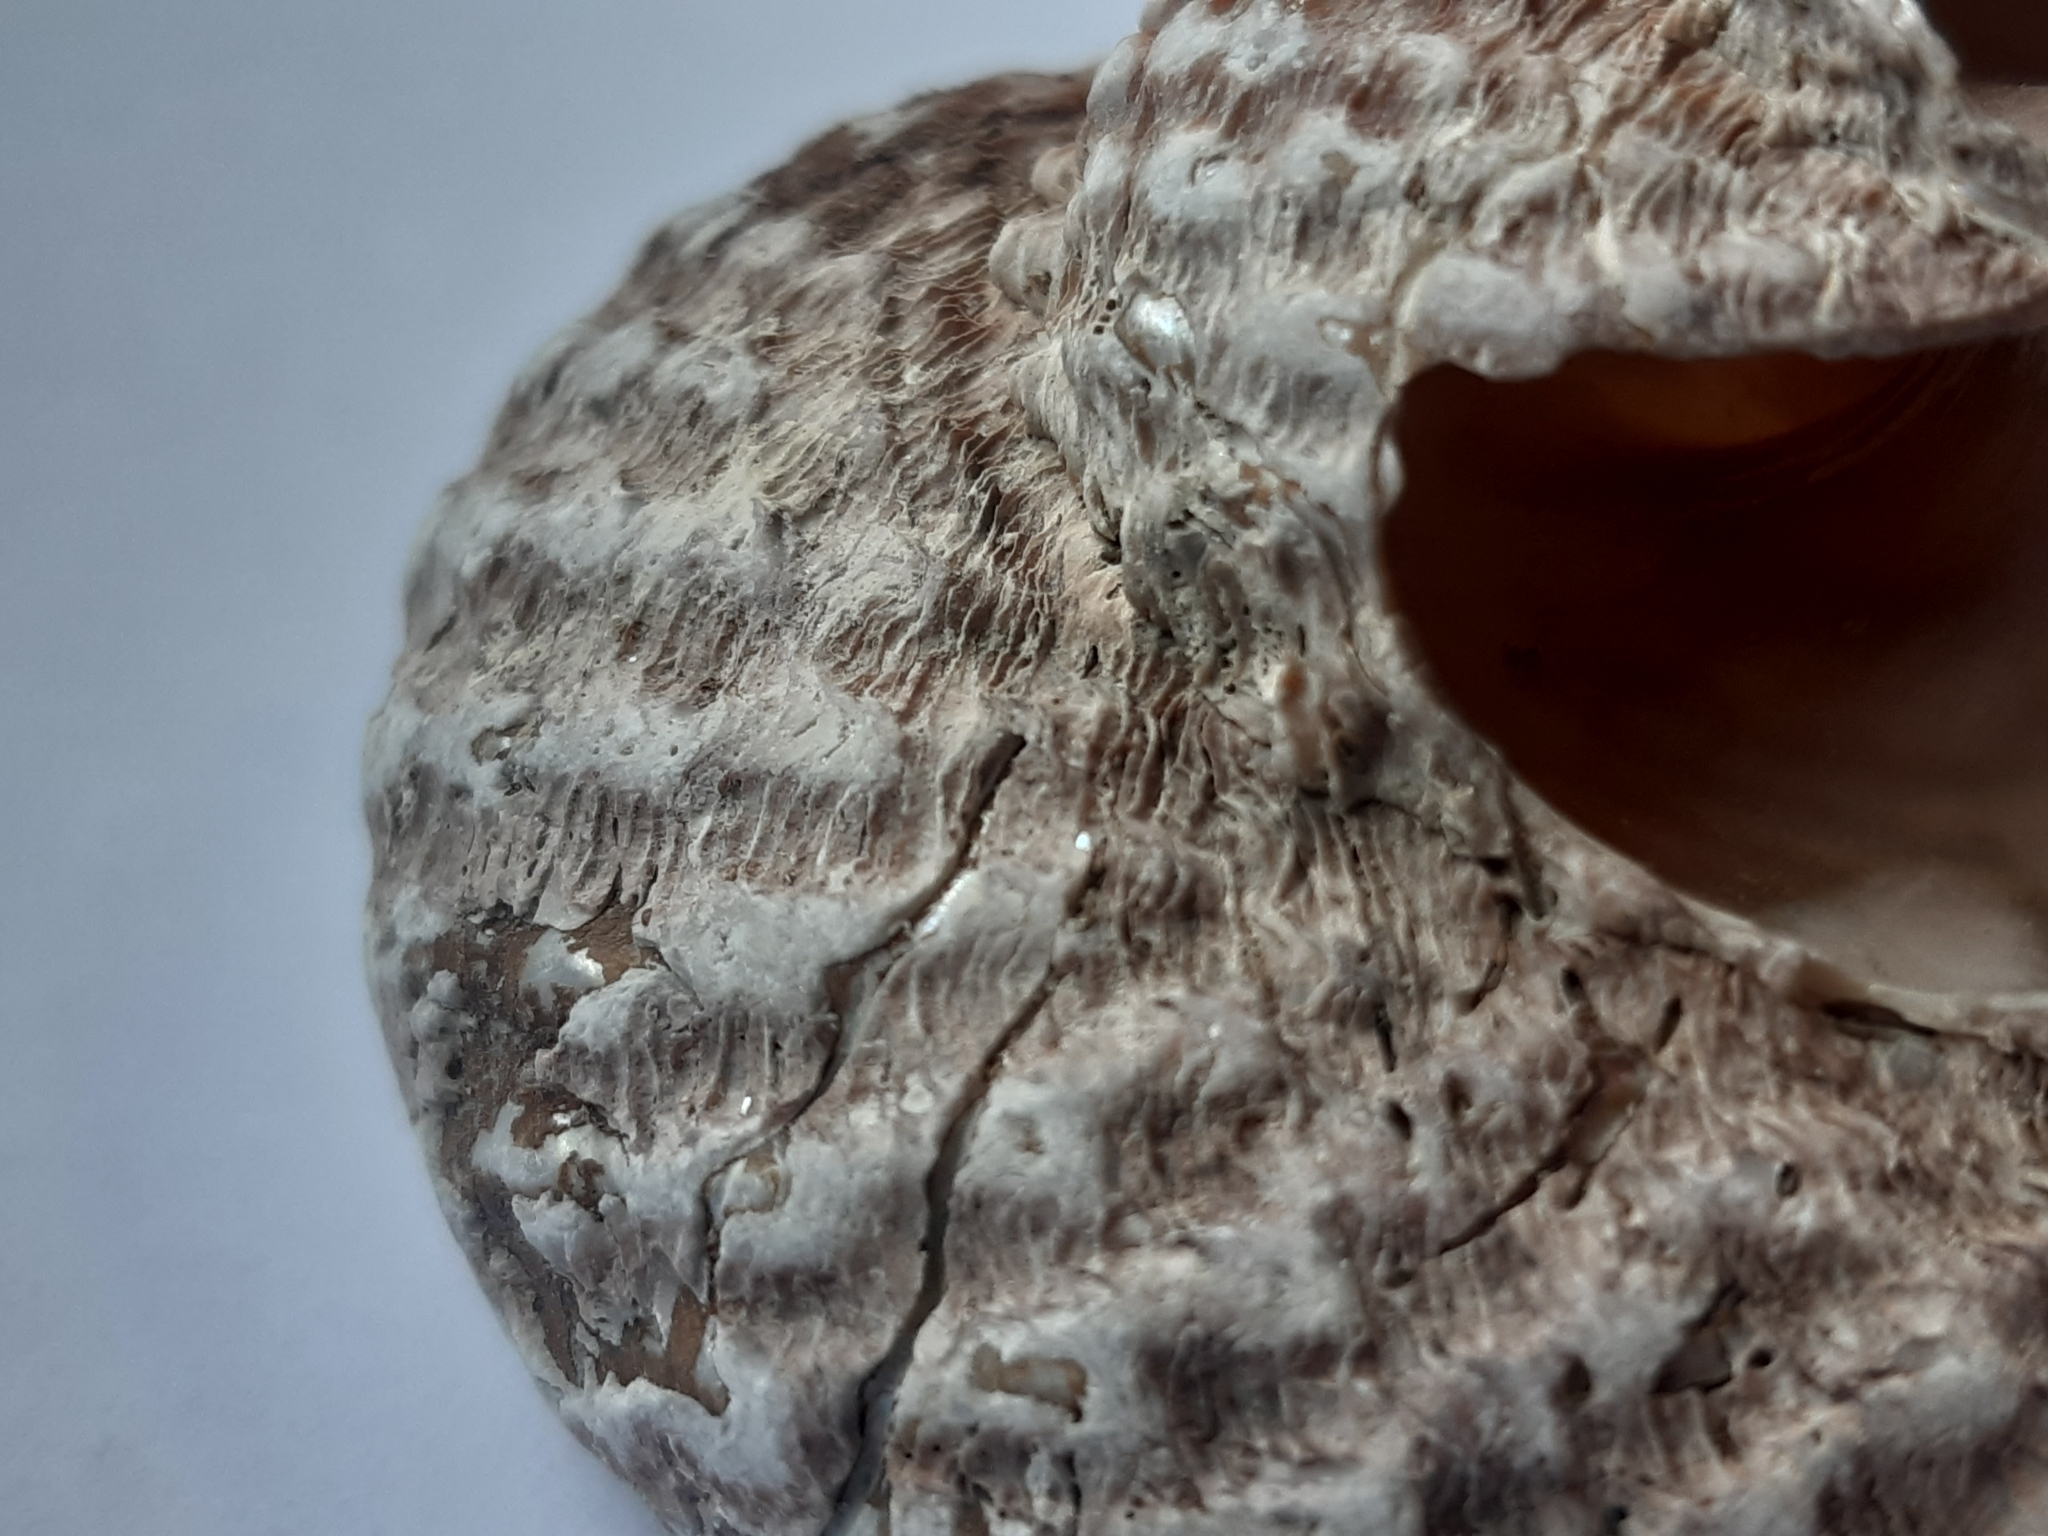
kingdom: Animalia
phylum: Mollusca
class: Gastropoda
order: Trochida
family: Turbinidae
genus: Cookia
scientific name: Cookia sulcata
